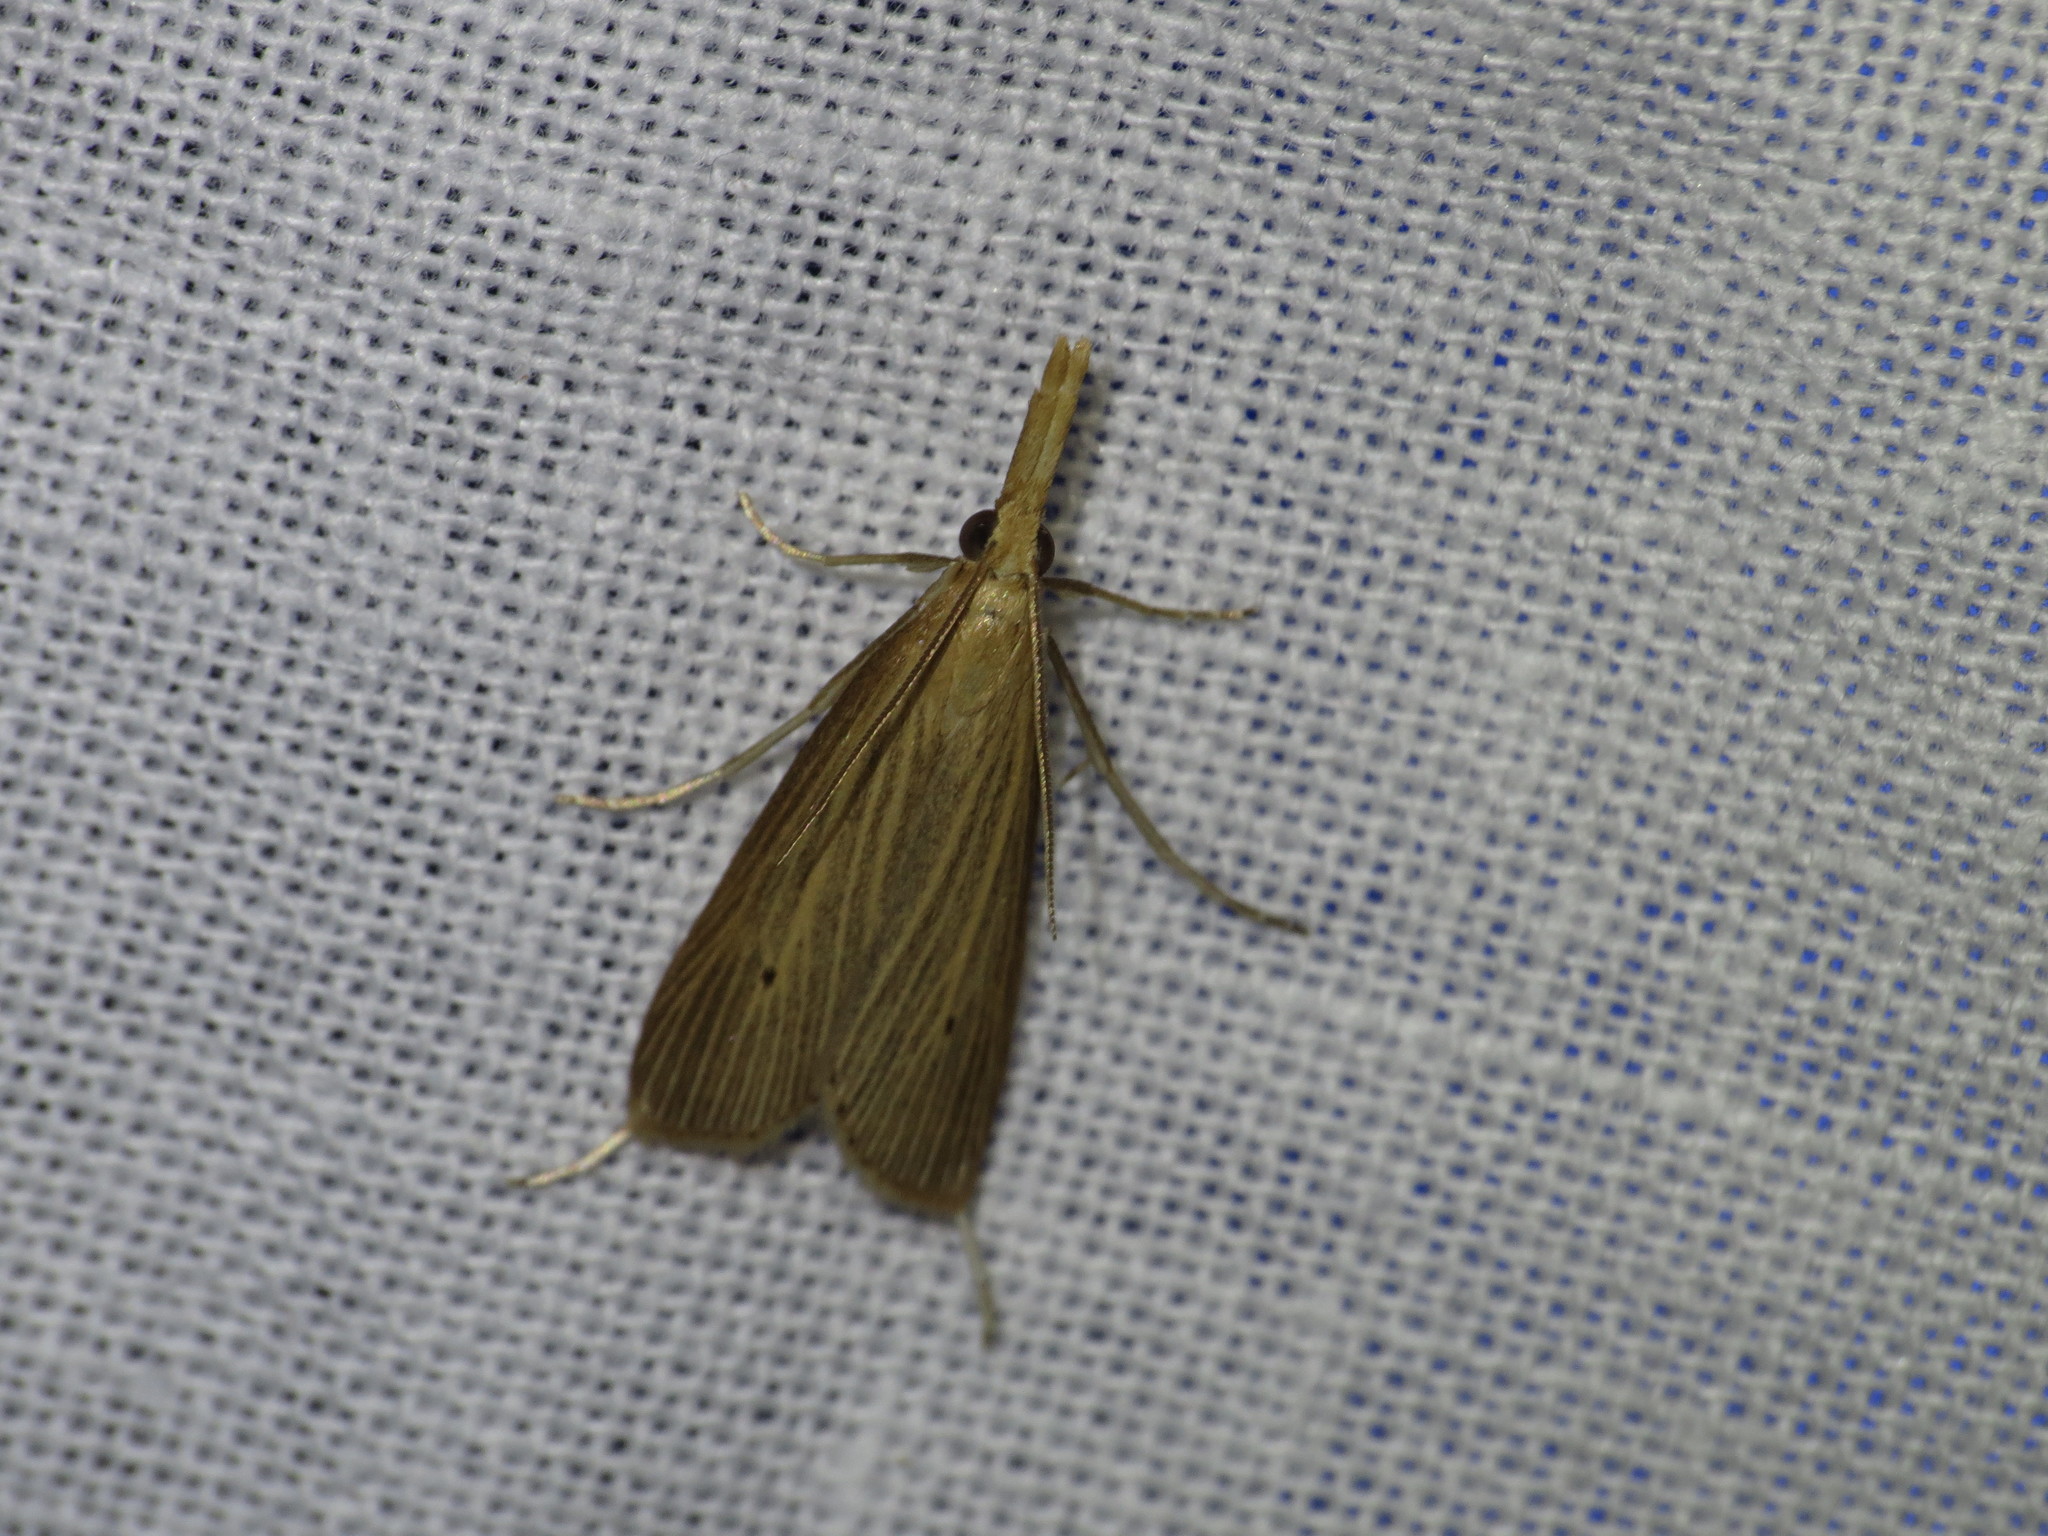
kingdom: Animalia
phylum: Arthropoda
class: Insecta
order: Lepidoptera
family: Crambidae
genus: Donacaula
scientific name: Donacaula roscidellus
